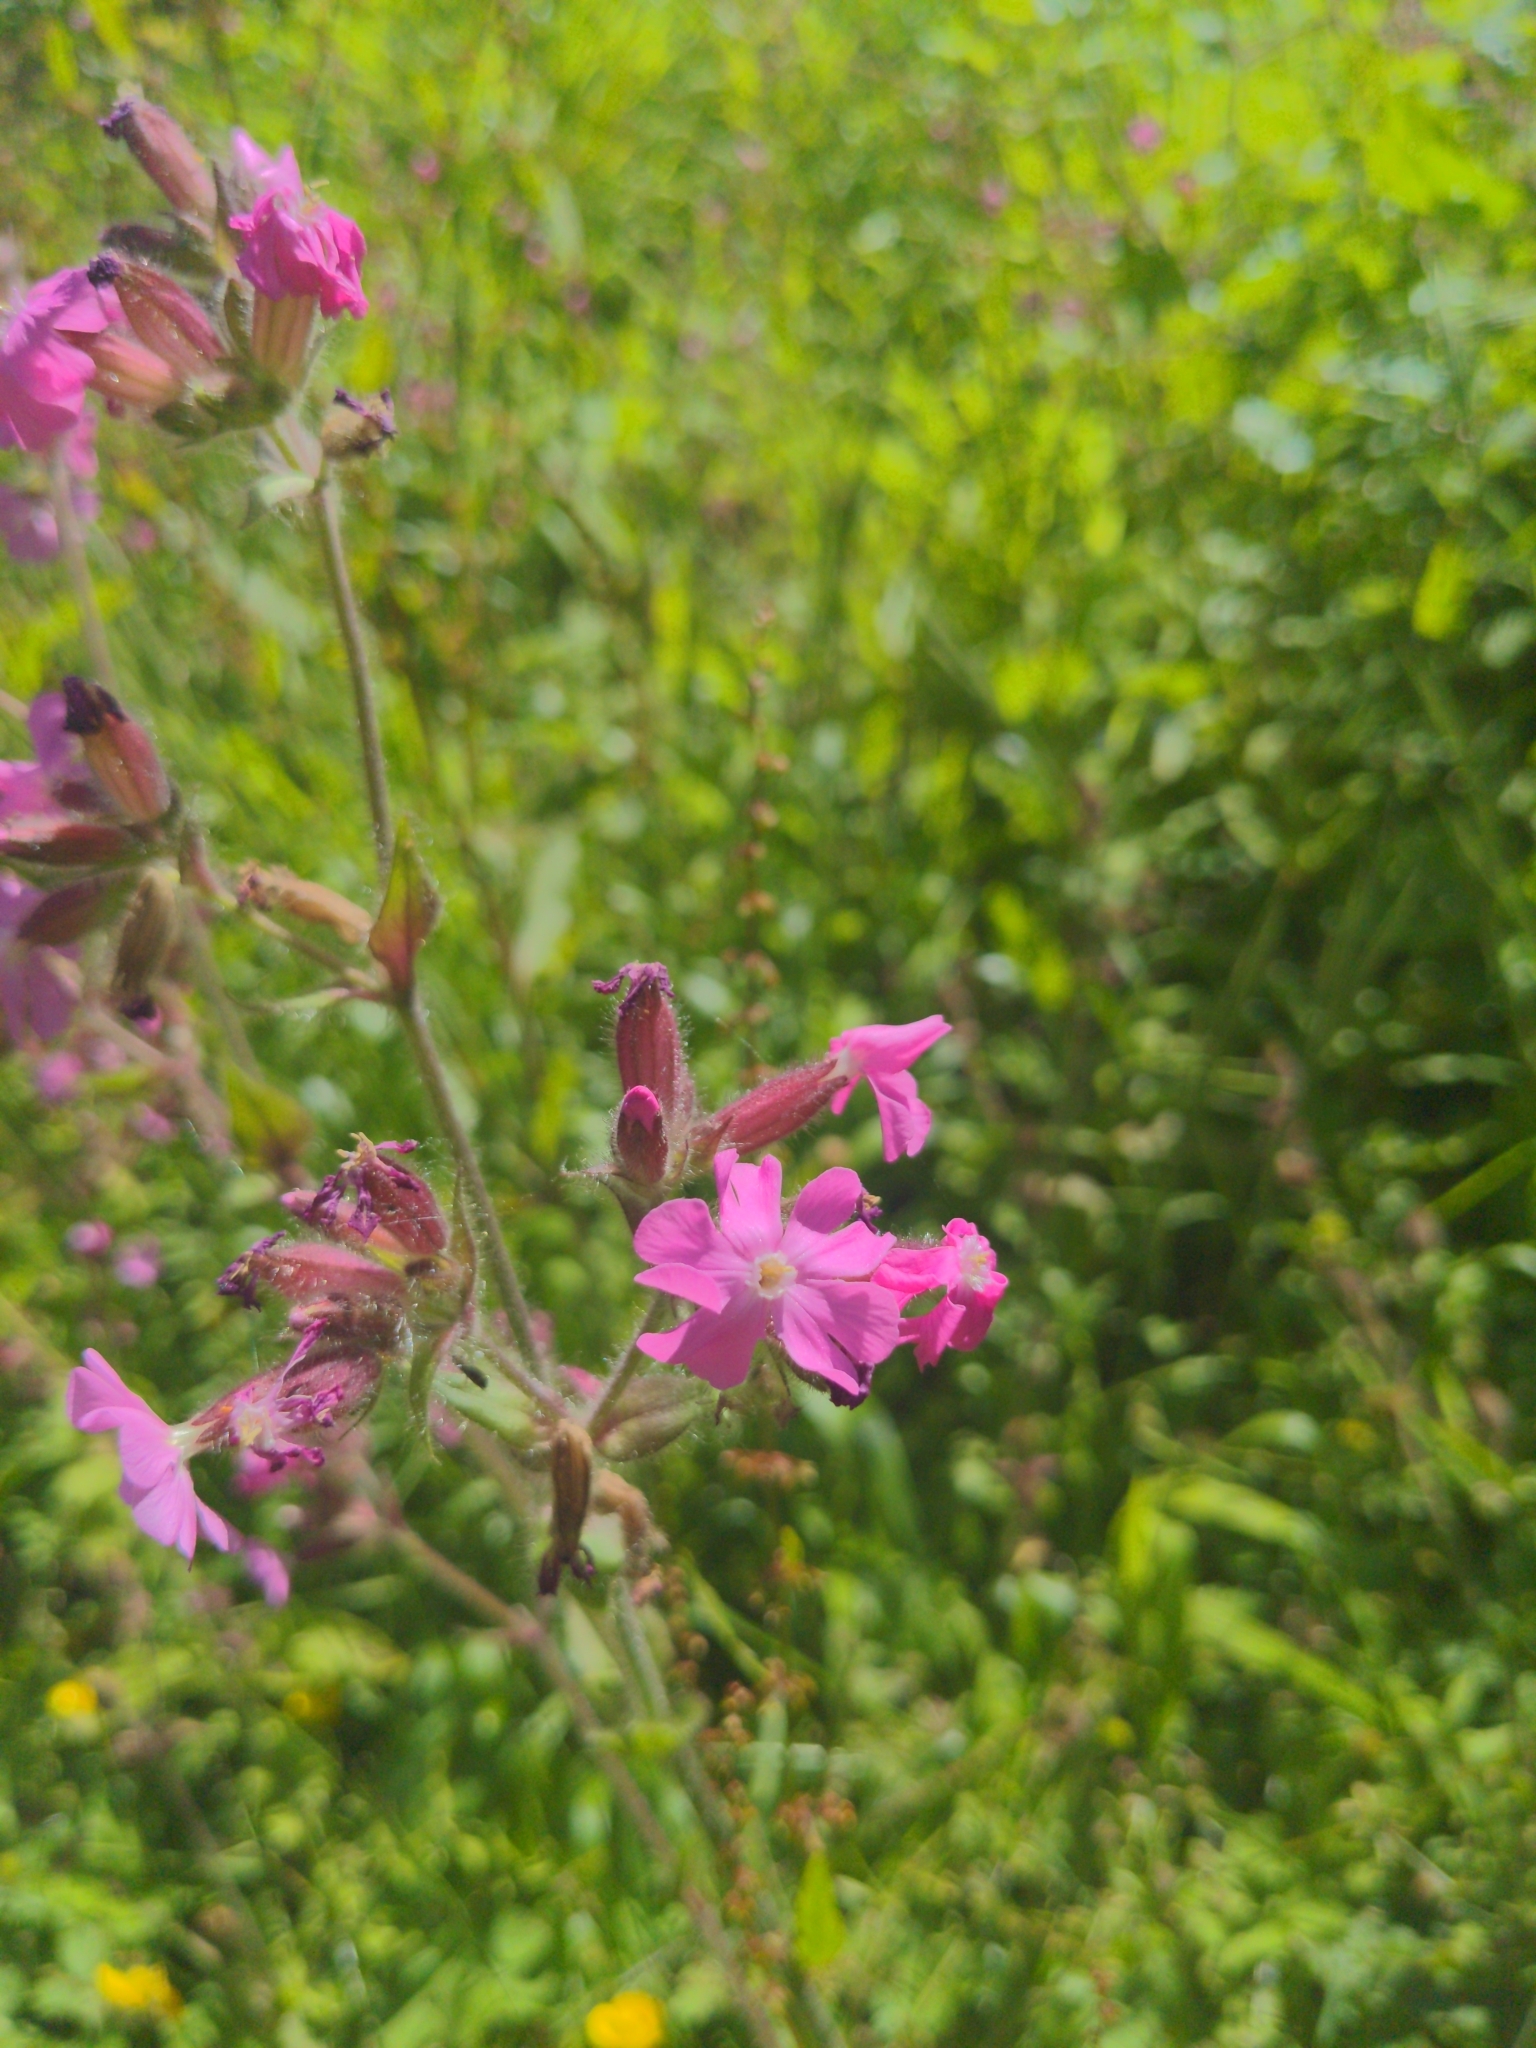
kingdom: Plantae
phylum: Tracheophyta
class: Magnoliopsida
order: Caryophyllales
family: Caryophyllaceae
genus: Silene
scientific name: Silene dioica
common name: Red campion
